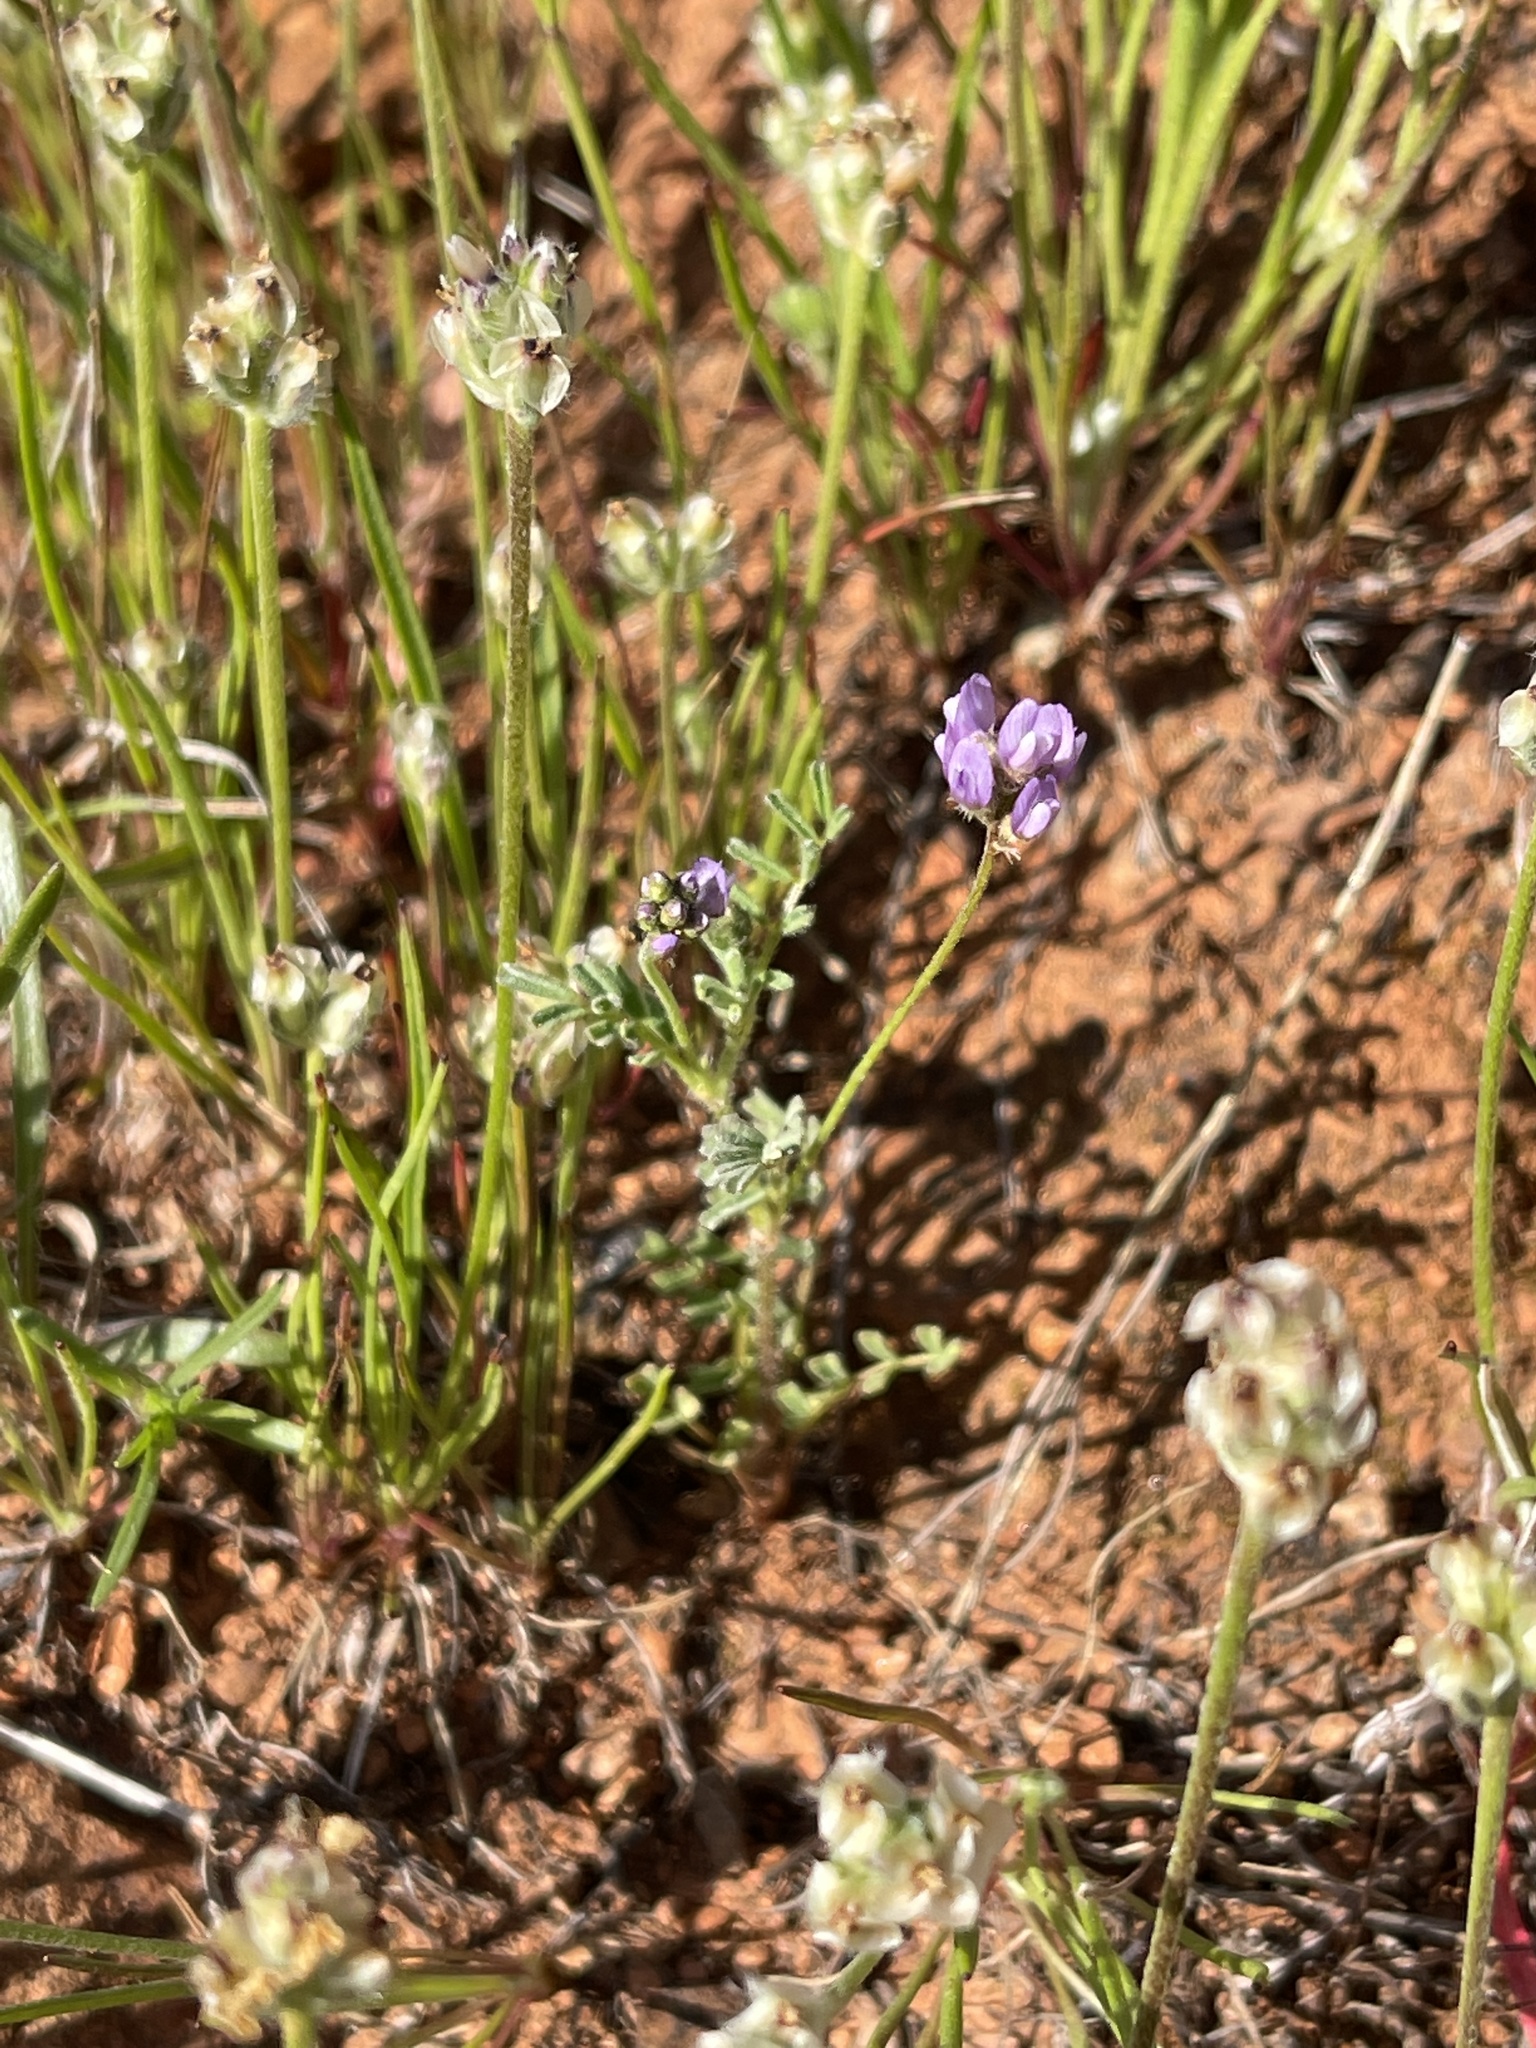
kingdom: Plantae
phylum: Tracheophyta
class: Magnoliopsida
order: Fabales
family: Fabaceae
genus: Astragalus
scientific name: Astragalus gambelianus
